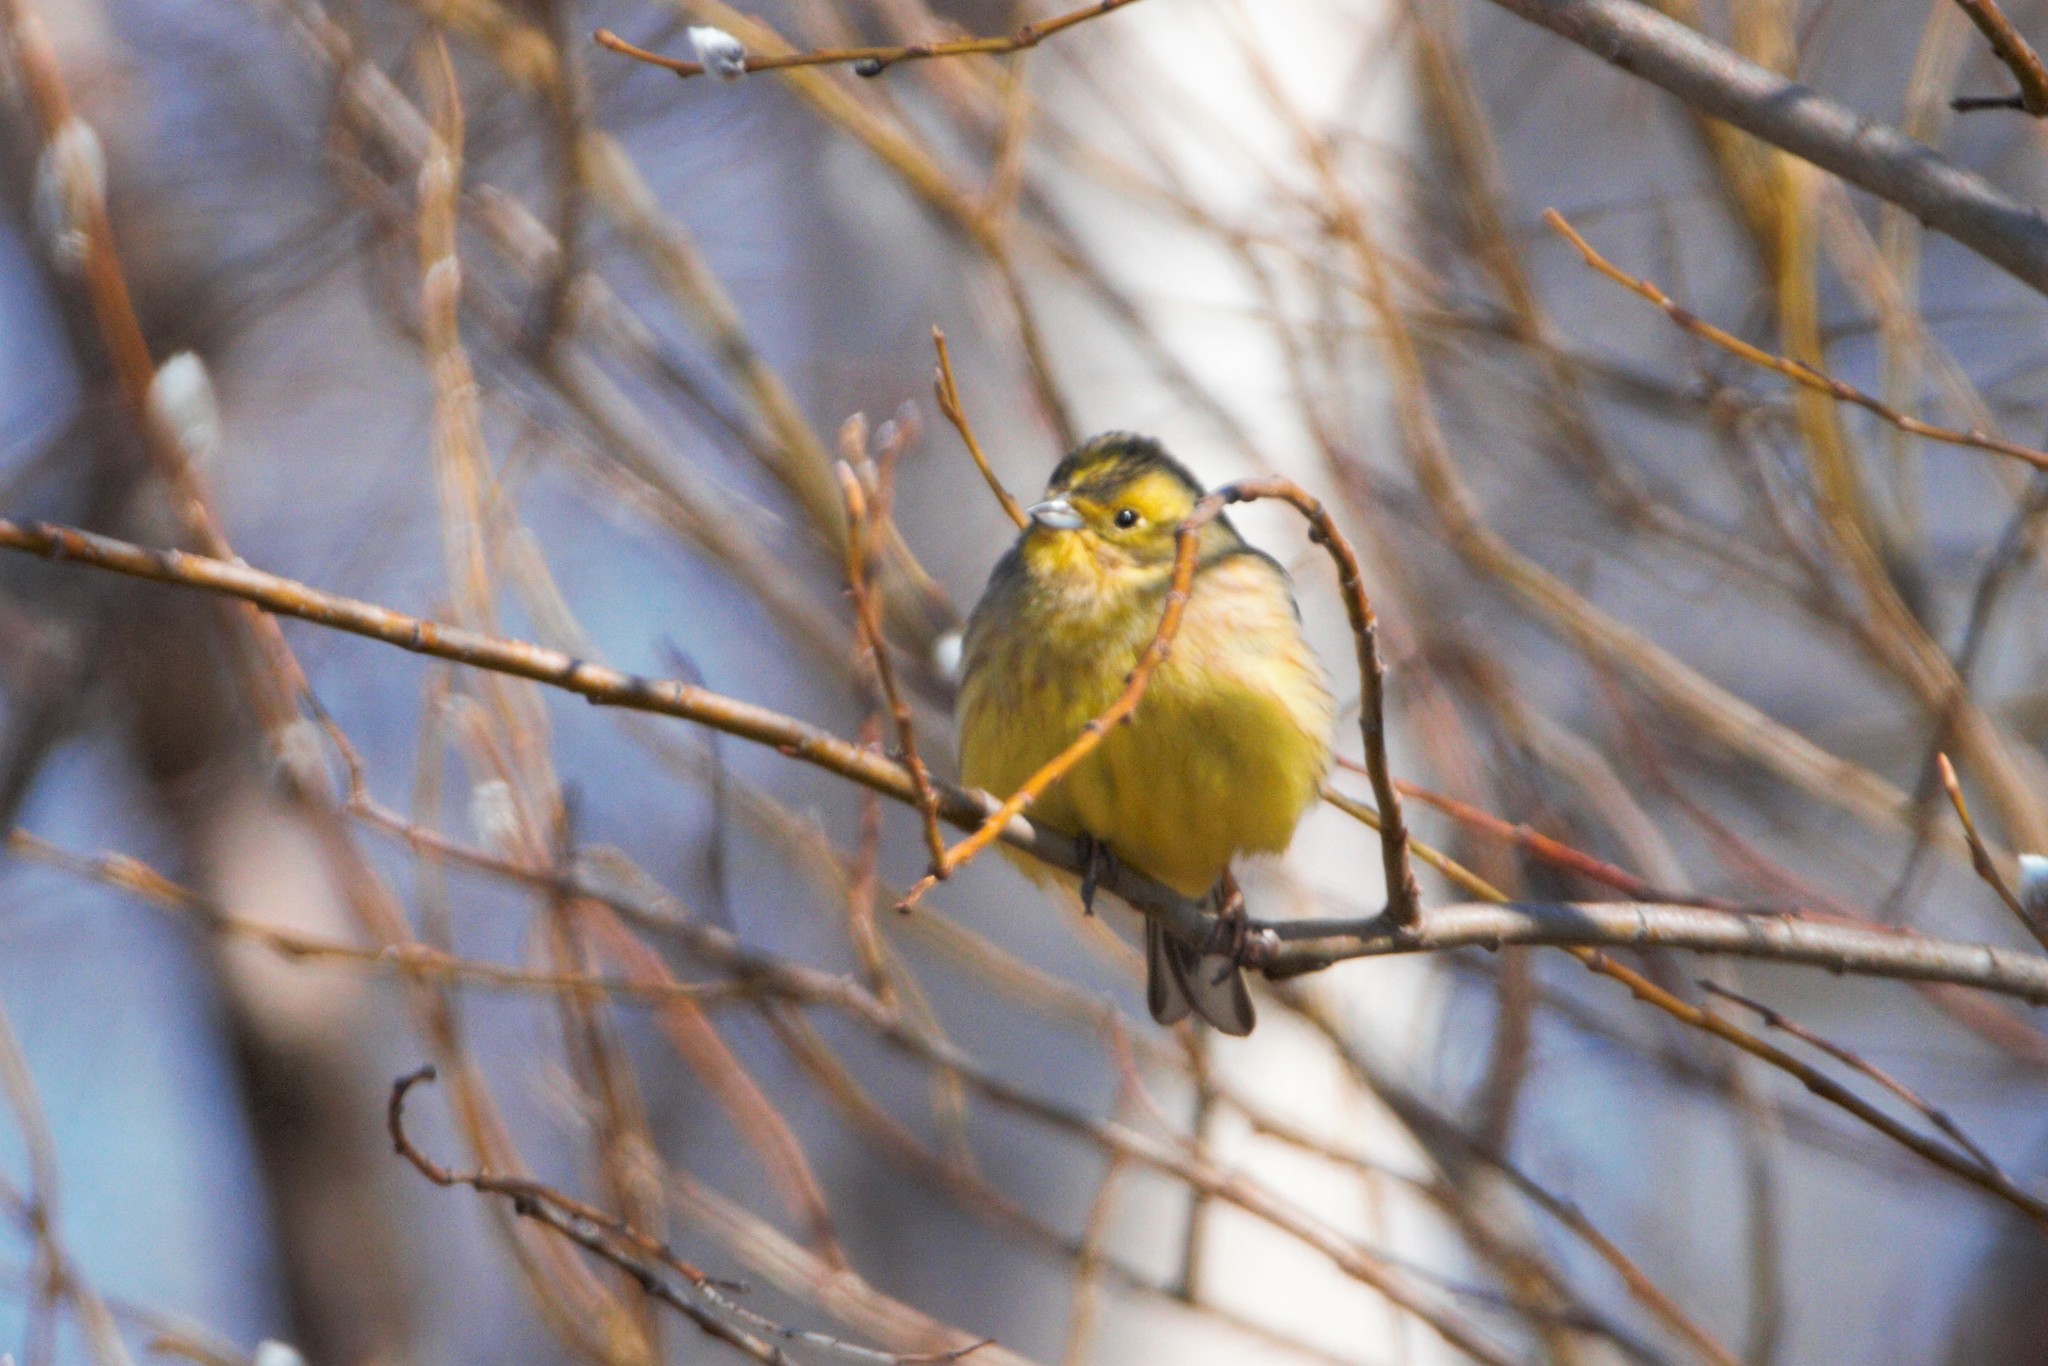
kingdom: Animalia
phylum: Chordata
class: Aves
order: Passeriformes
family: Emberizidae
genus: Emberiza
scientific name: Emberiza citrinella
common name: Yellowhammer
